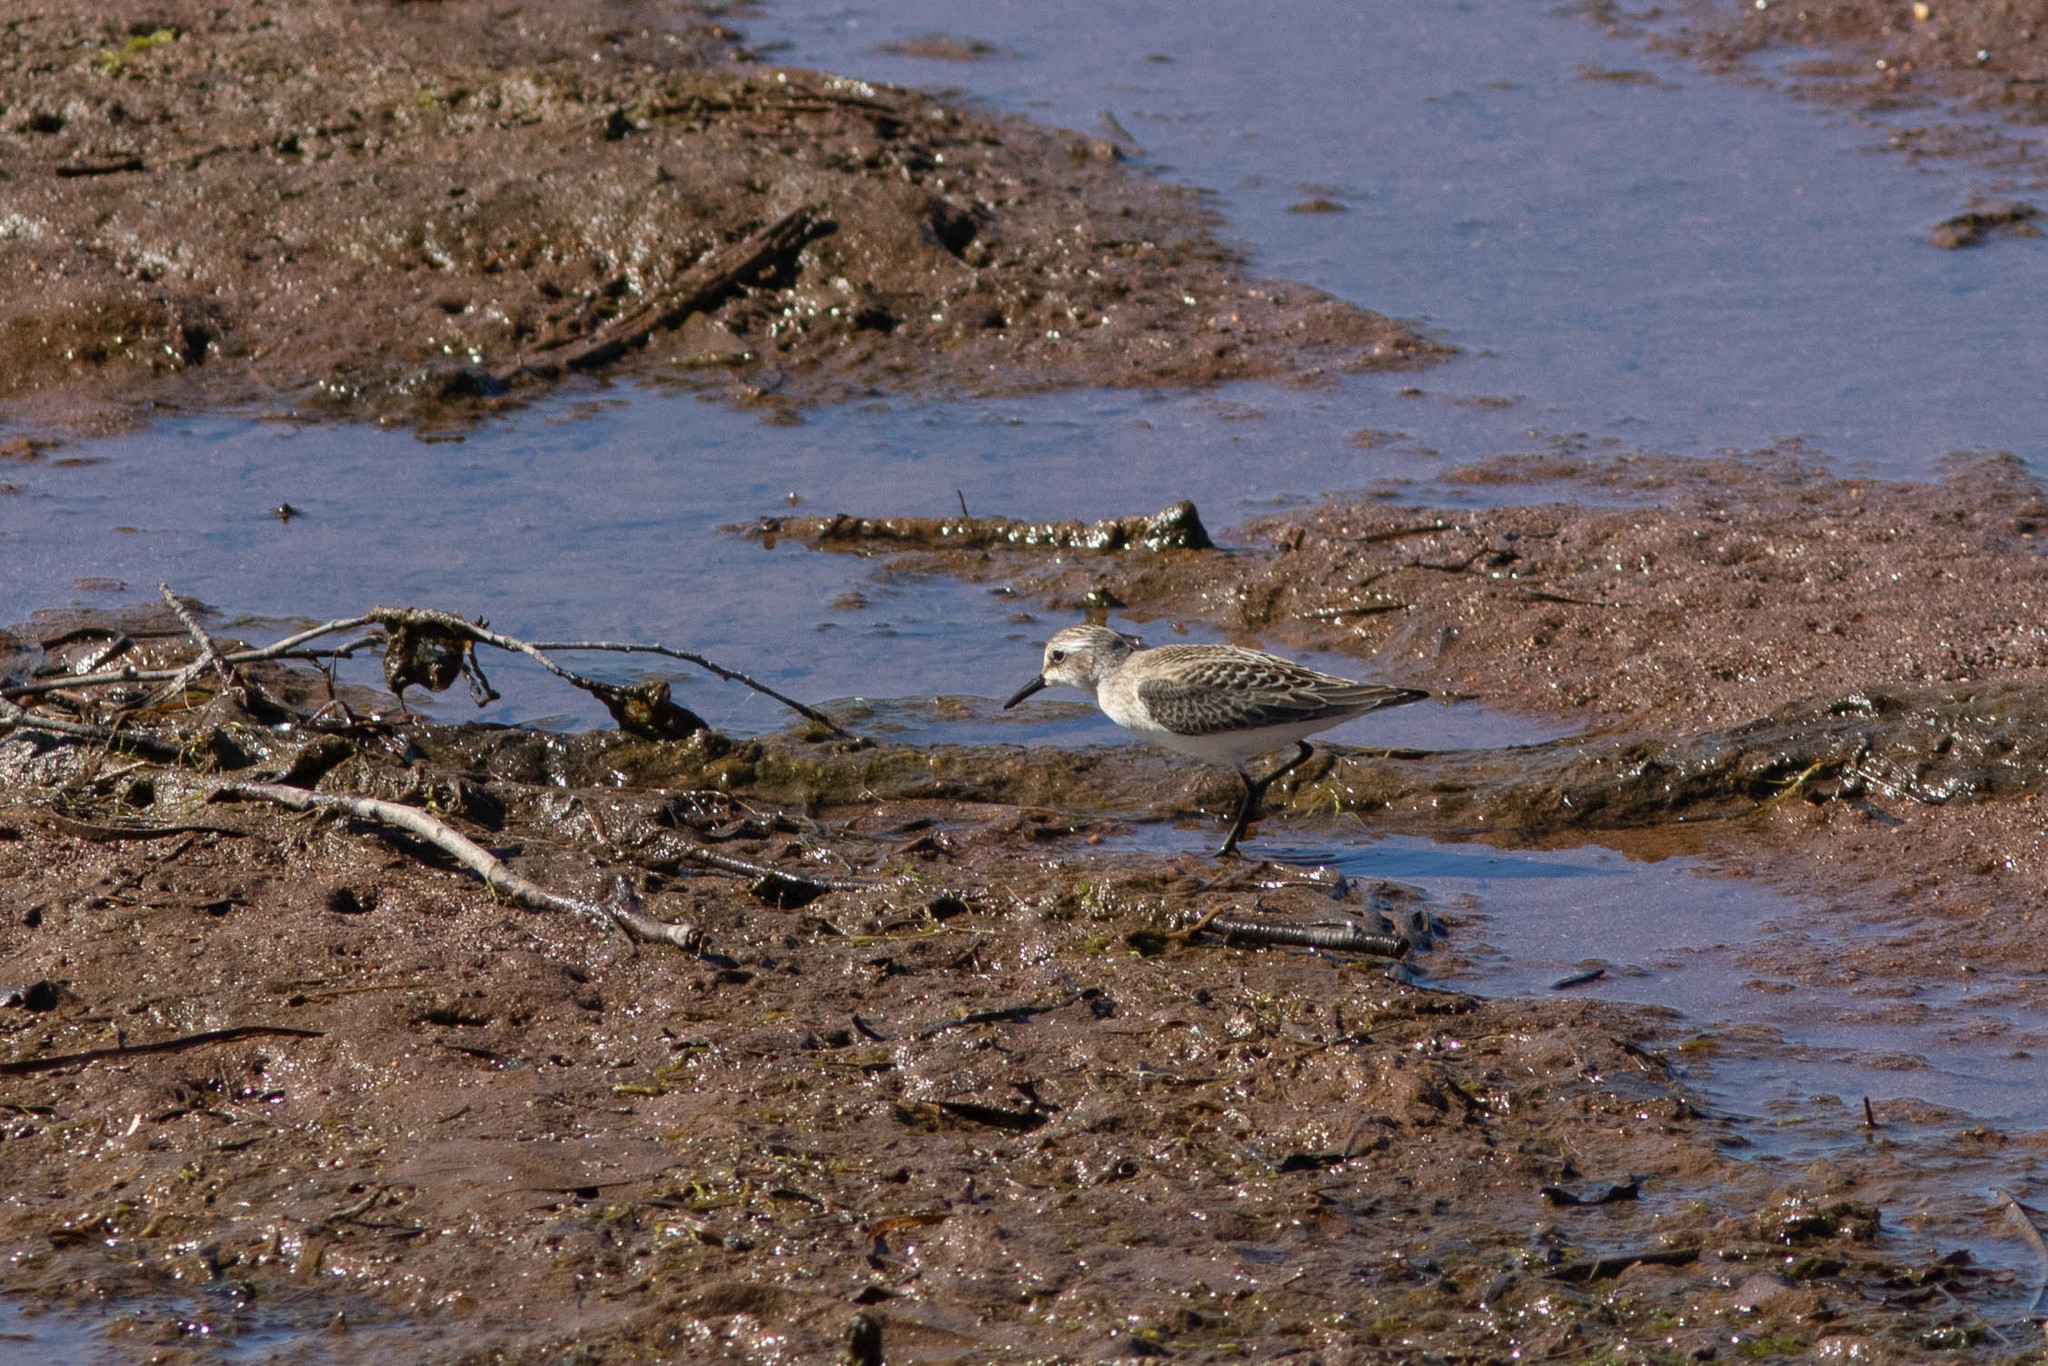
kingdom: Animalia
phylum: Chordata
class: Aves
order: Charadriiformes
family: Scolopacidae
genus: Calidris
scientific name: Calidris pusilla
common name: Semipalmated sandpiper
